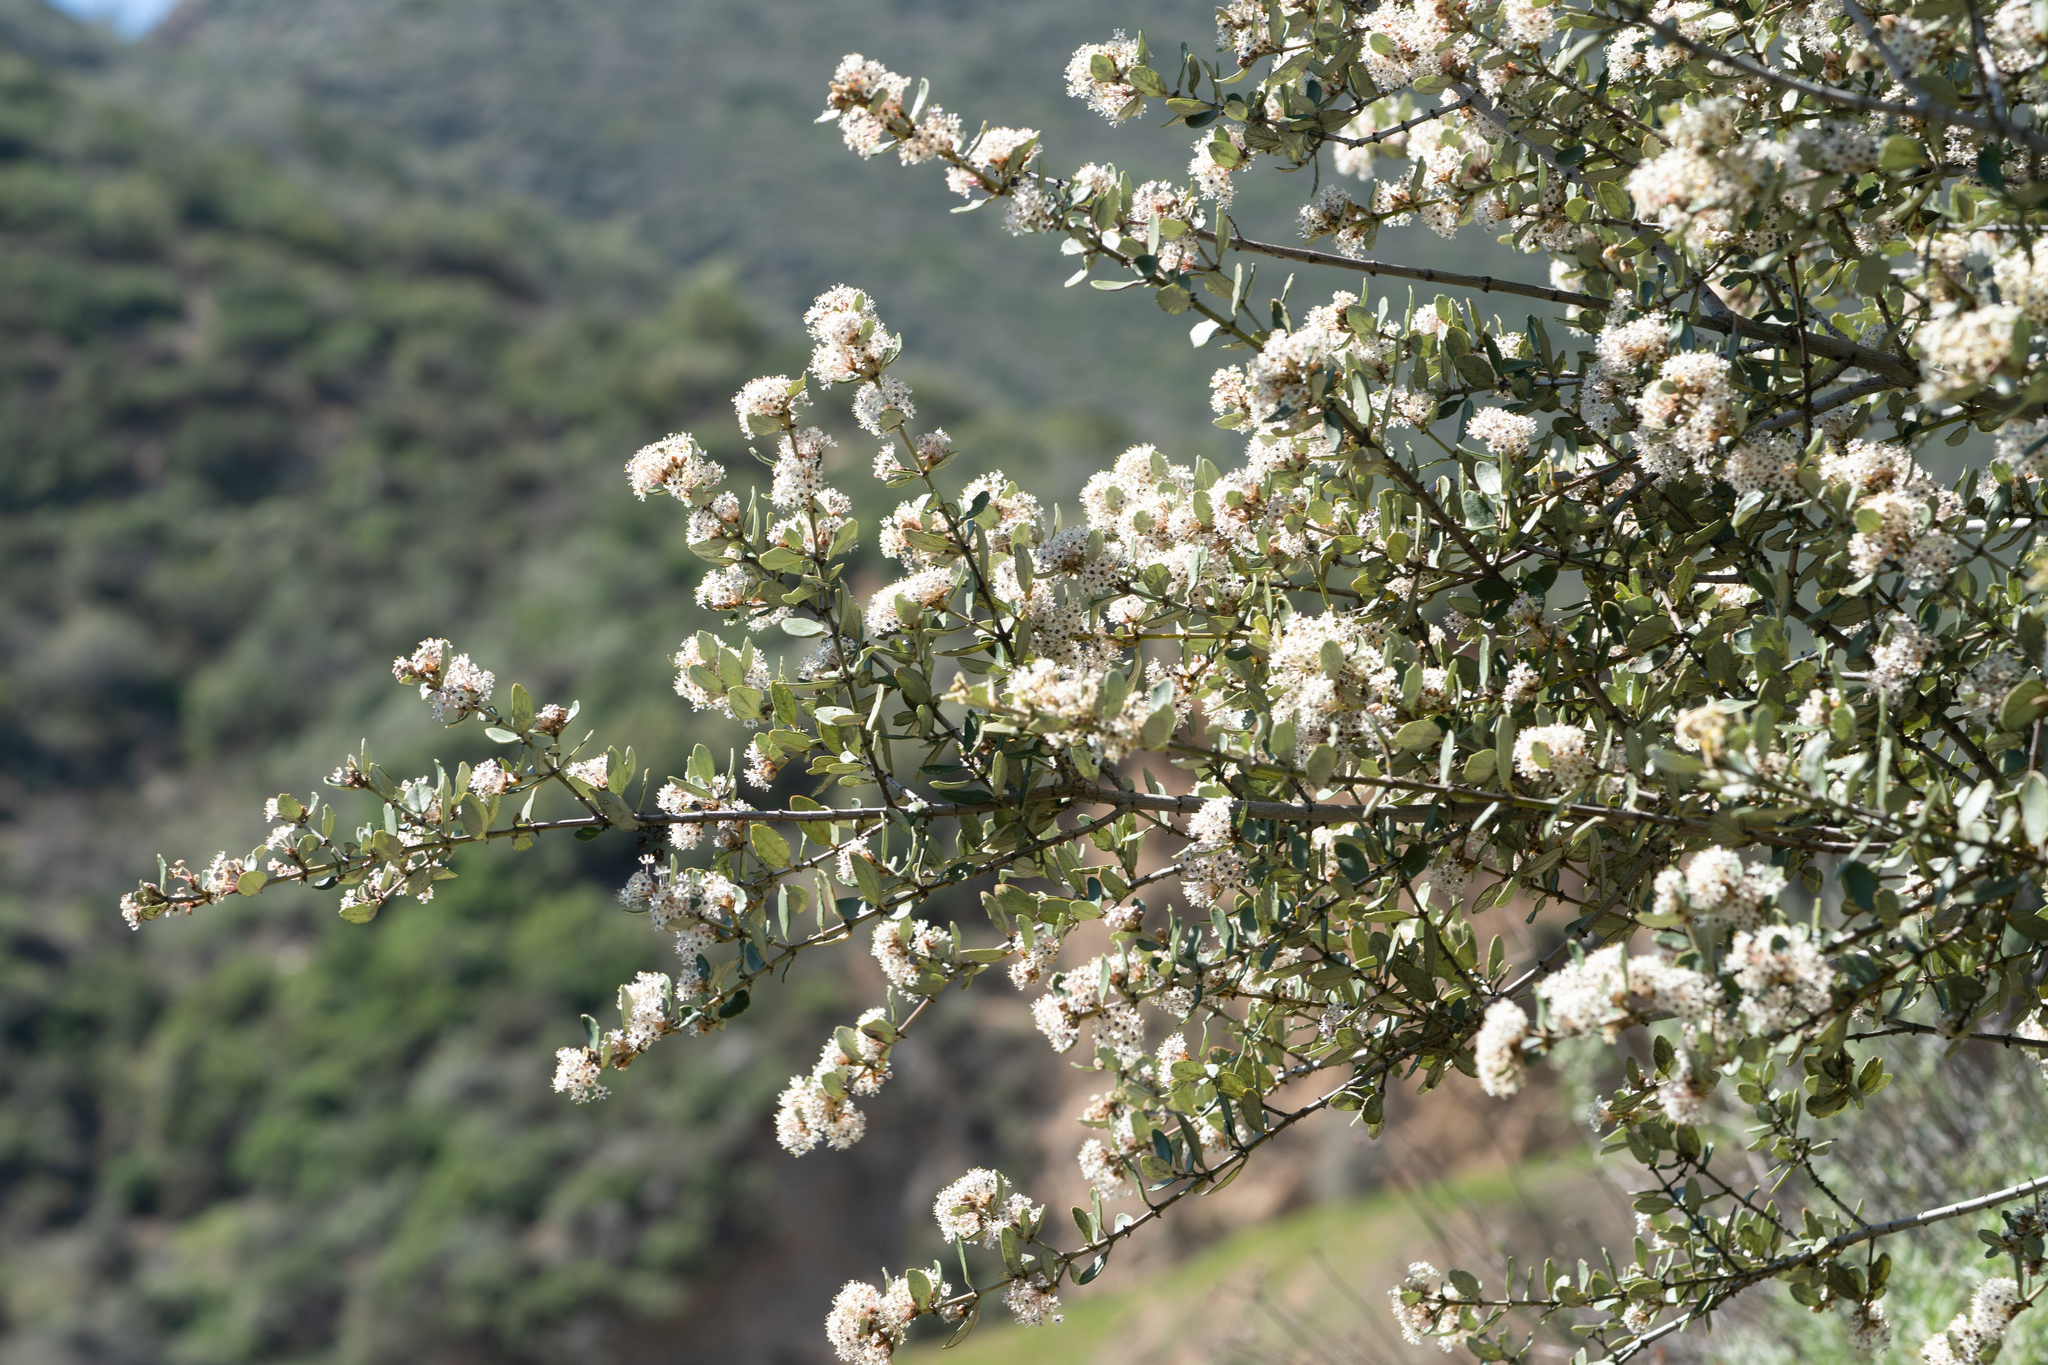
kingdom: Plantae
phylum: Tracheophyta
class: Magnoliopsida
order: Rosales
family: Rhamnaceae
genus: Ceanothus
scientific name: Ceanothus crassifolius
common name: Hoaryleaf ceanothus
